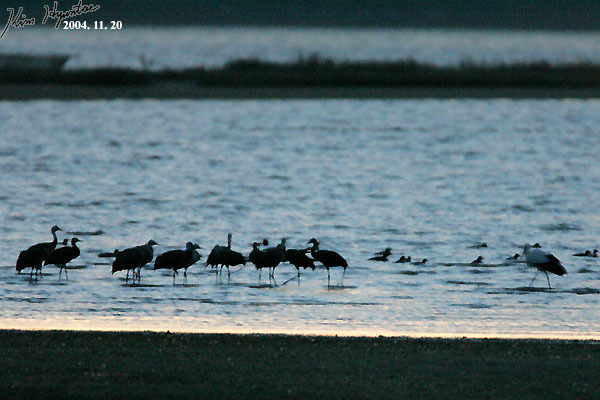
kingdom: Animalia
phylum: Chordata
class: Aves
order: Ciconiiformes
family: Ciconiidae
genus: Ciconia
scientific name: Ciconia boyciana
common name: Oriental stork
